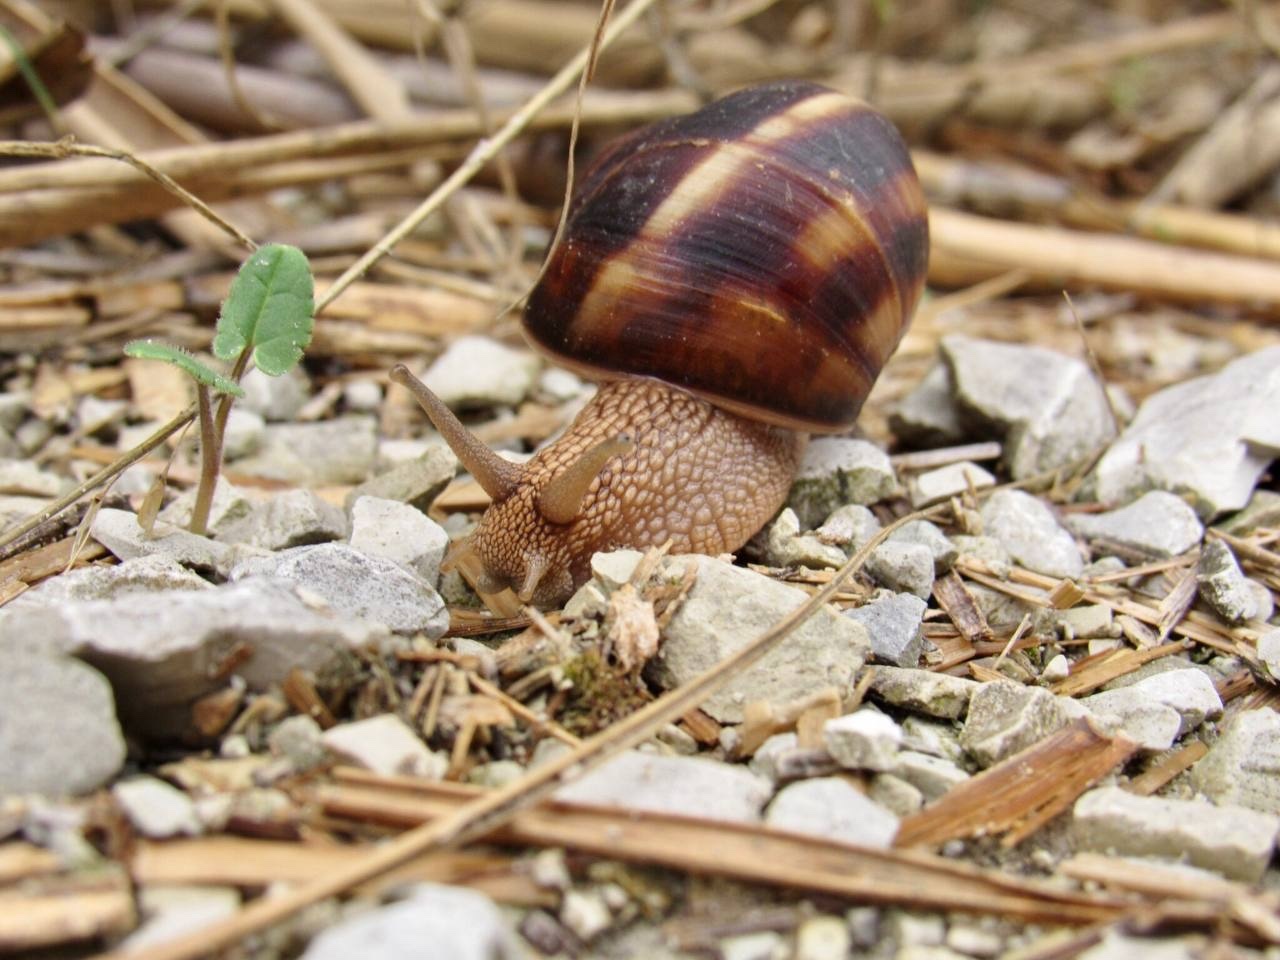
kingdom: Animalia
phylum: Mollusca
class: Gastropoda
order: Stylommatophora
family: Helicidae
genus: Helix
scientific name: Helix lucorum
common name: Turkish snail
